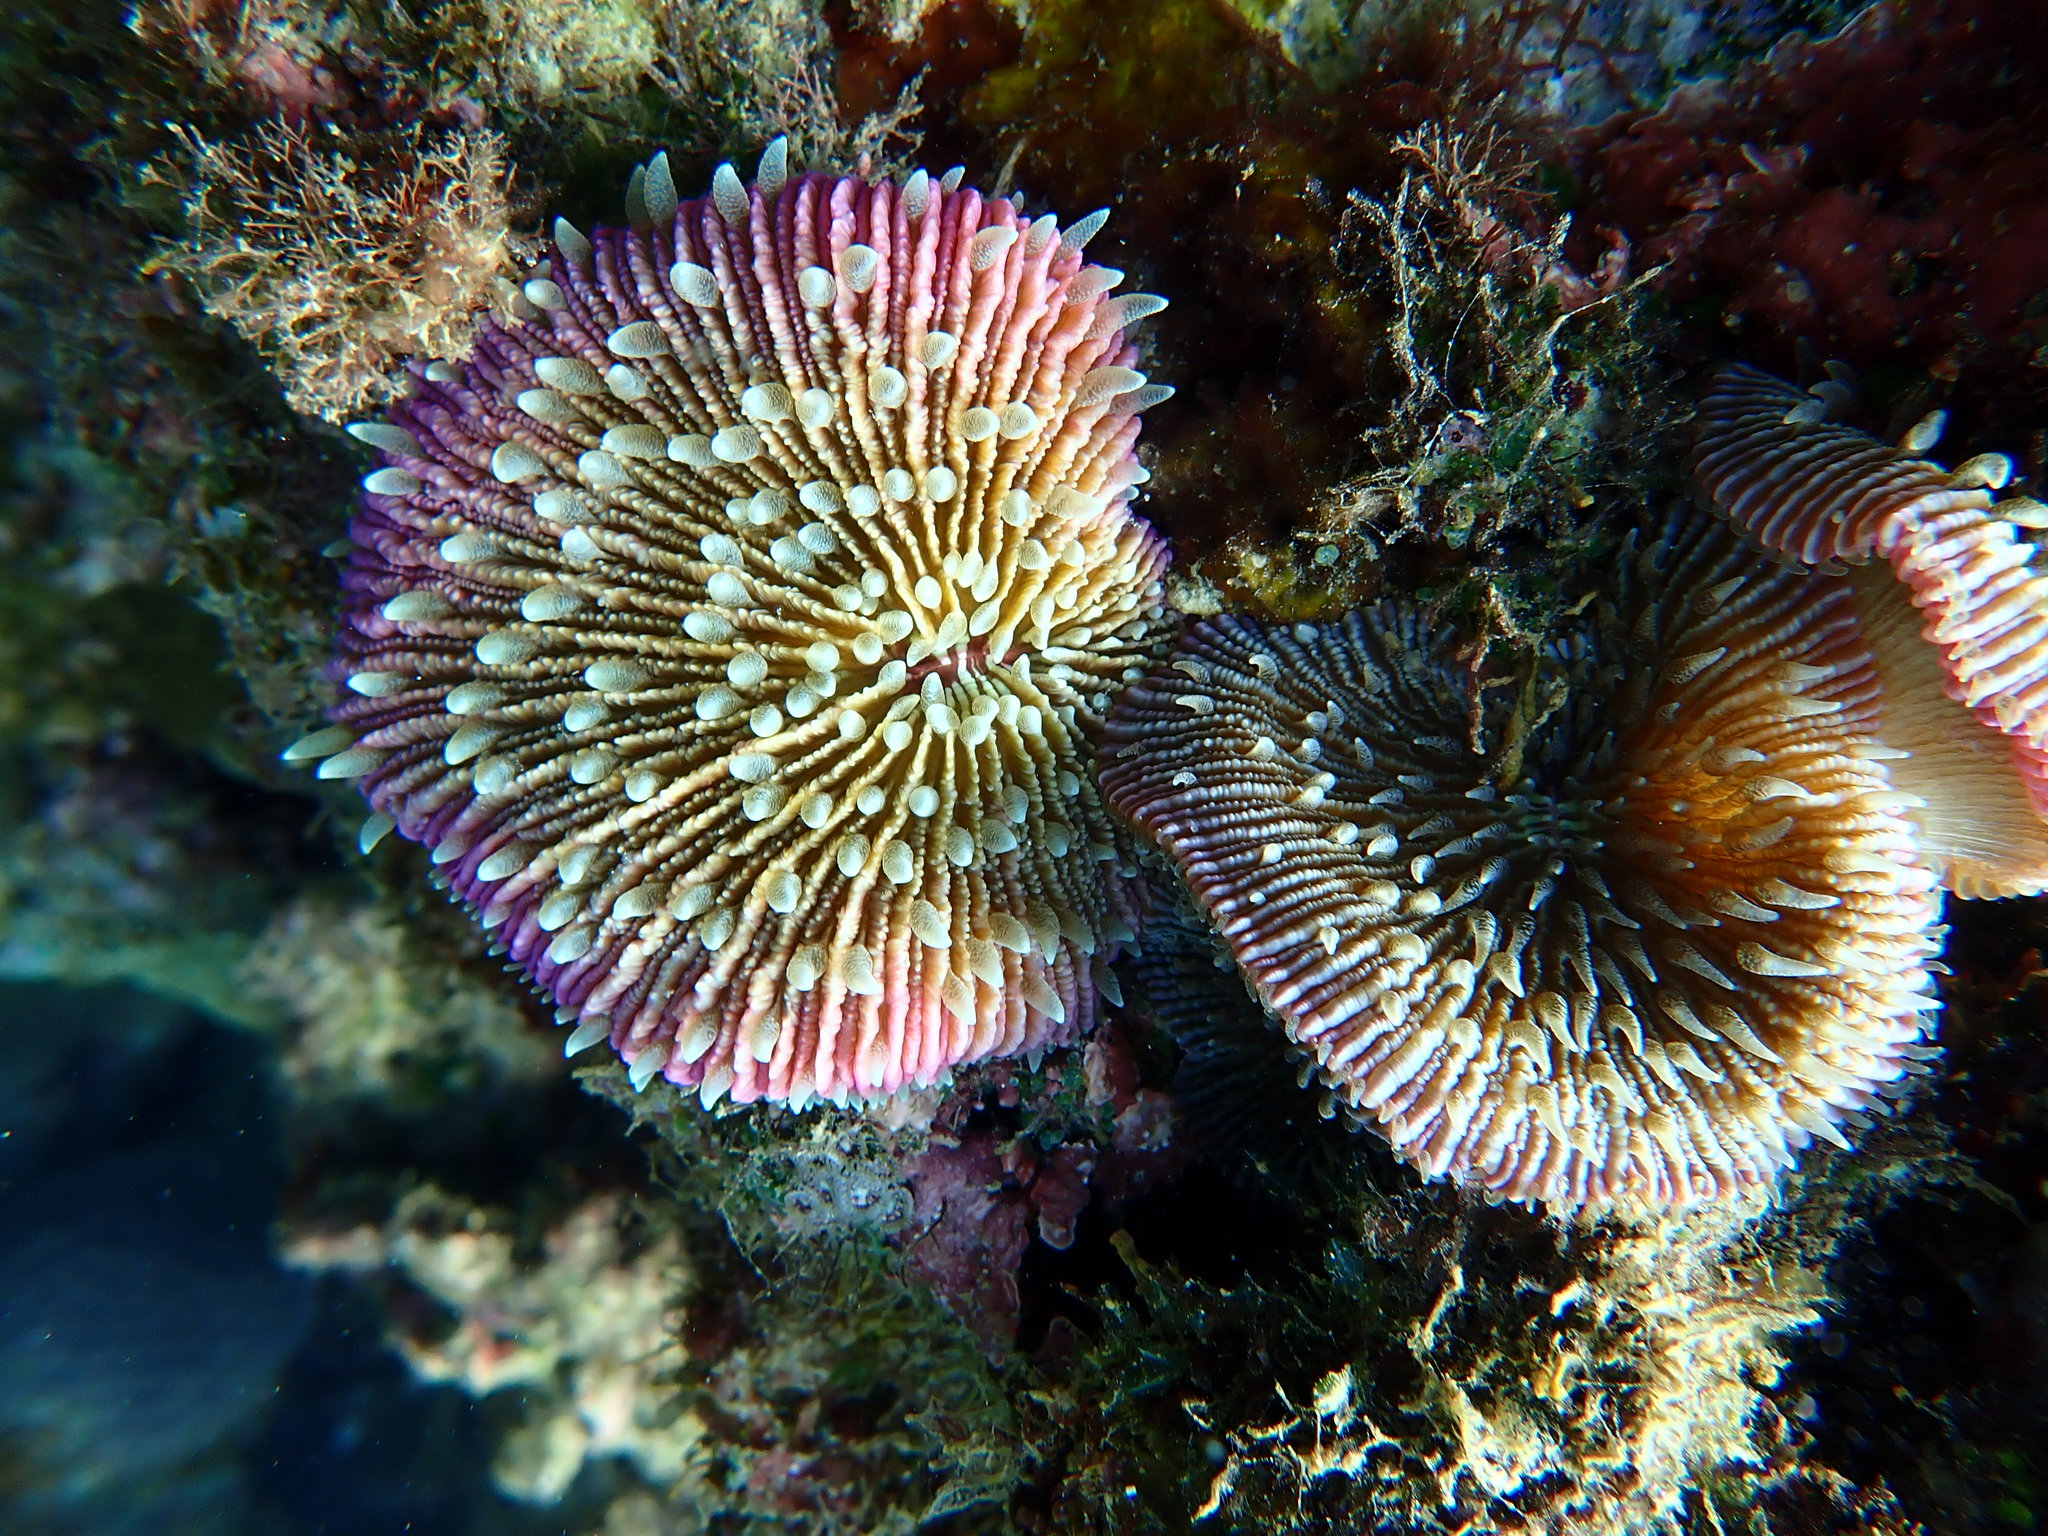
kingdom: Animalia
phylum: Cnidaria
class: Anthozoa
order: Scleractinia
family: Fungiidae
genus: Fungia
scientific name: Fungia fungites
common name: Mushroom coral
